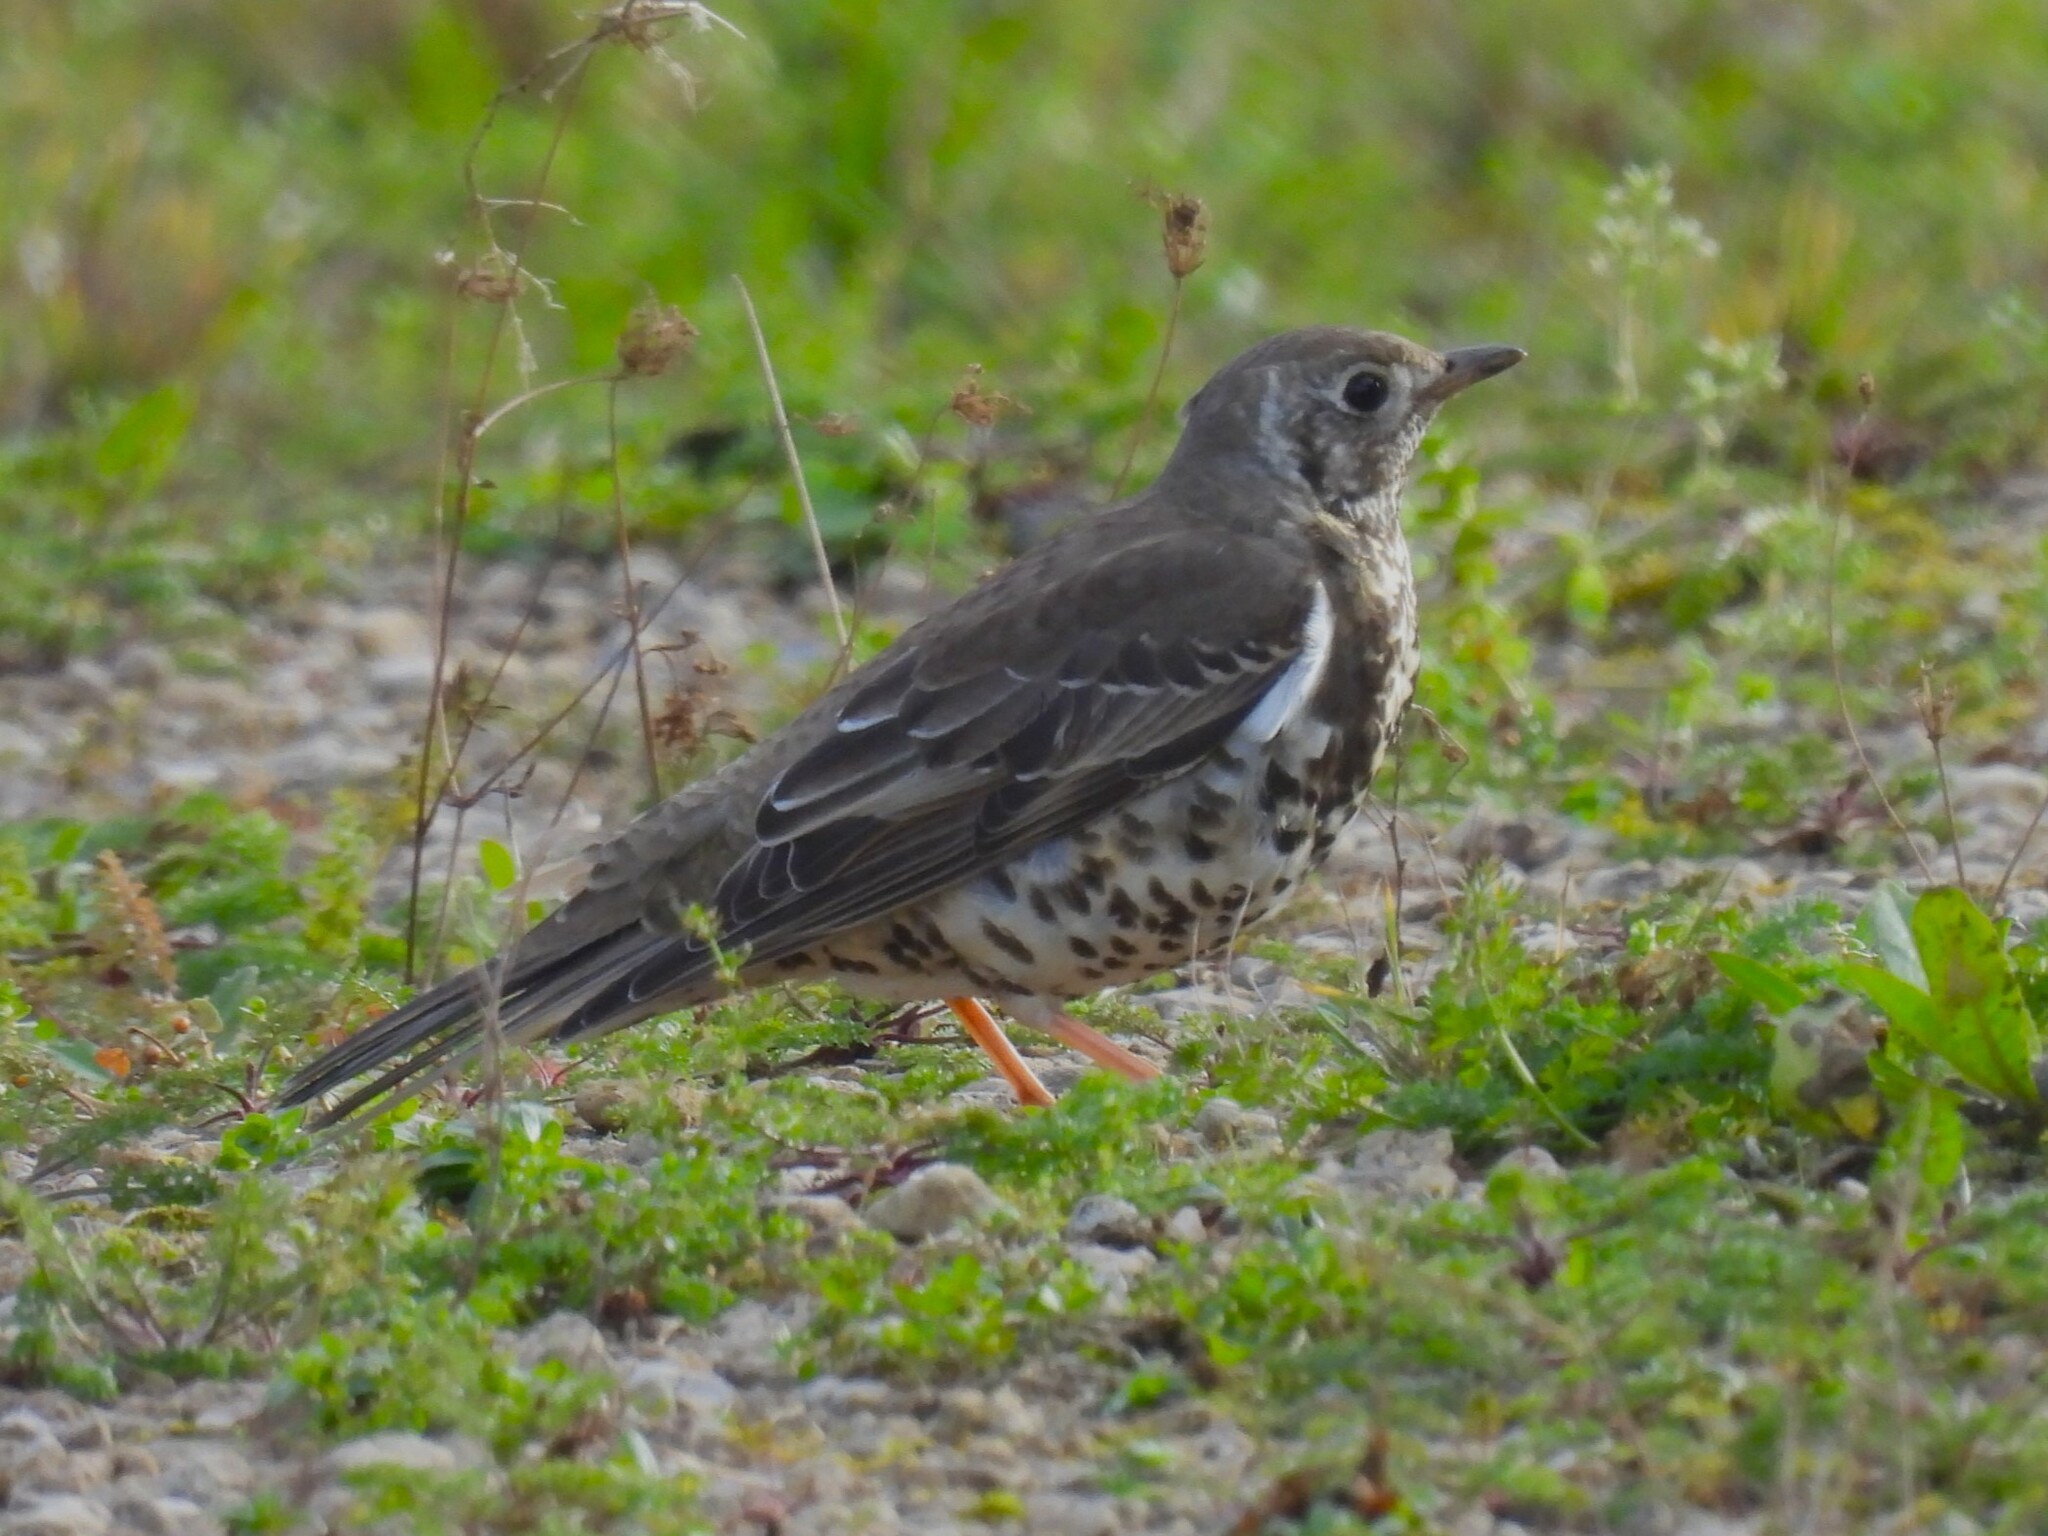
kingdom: Animalia
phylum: Chordata
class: Aves
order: Passeriformes
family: Turdidae
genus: Turdus
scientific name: Turdus viscivorus
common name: Mistle thrush
